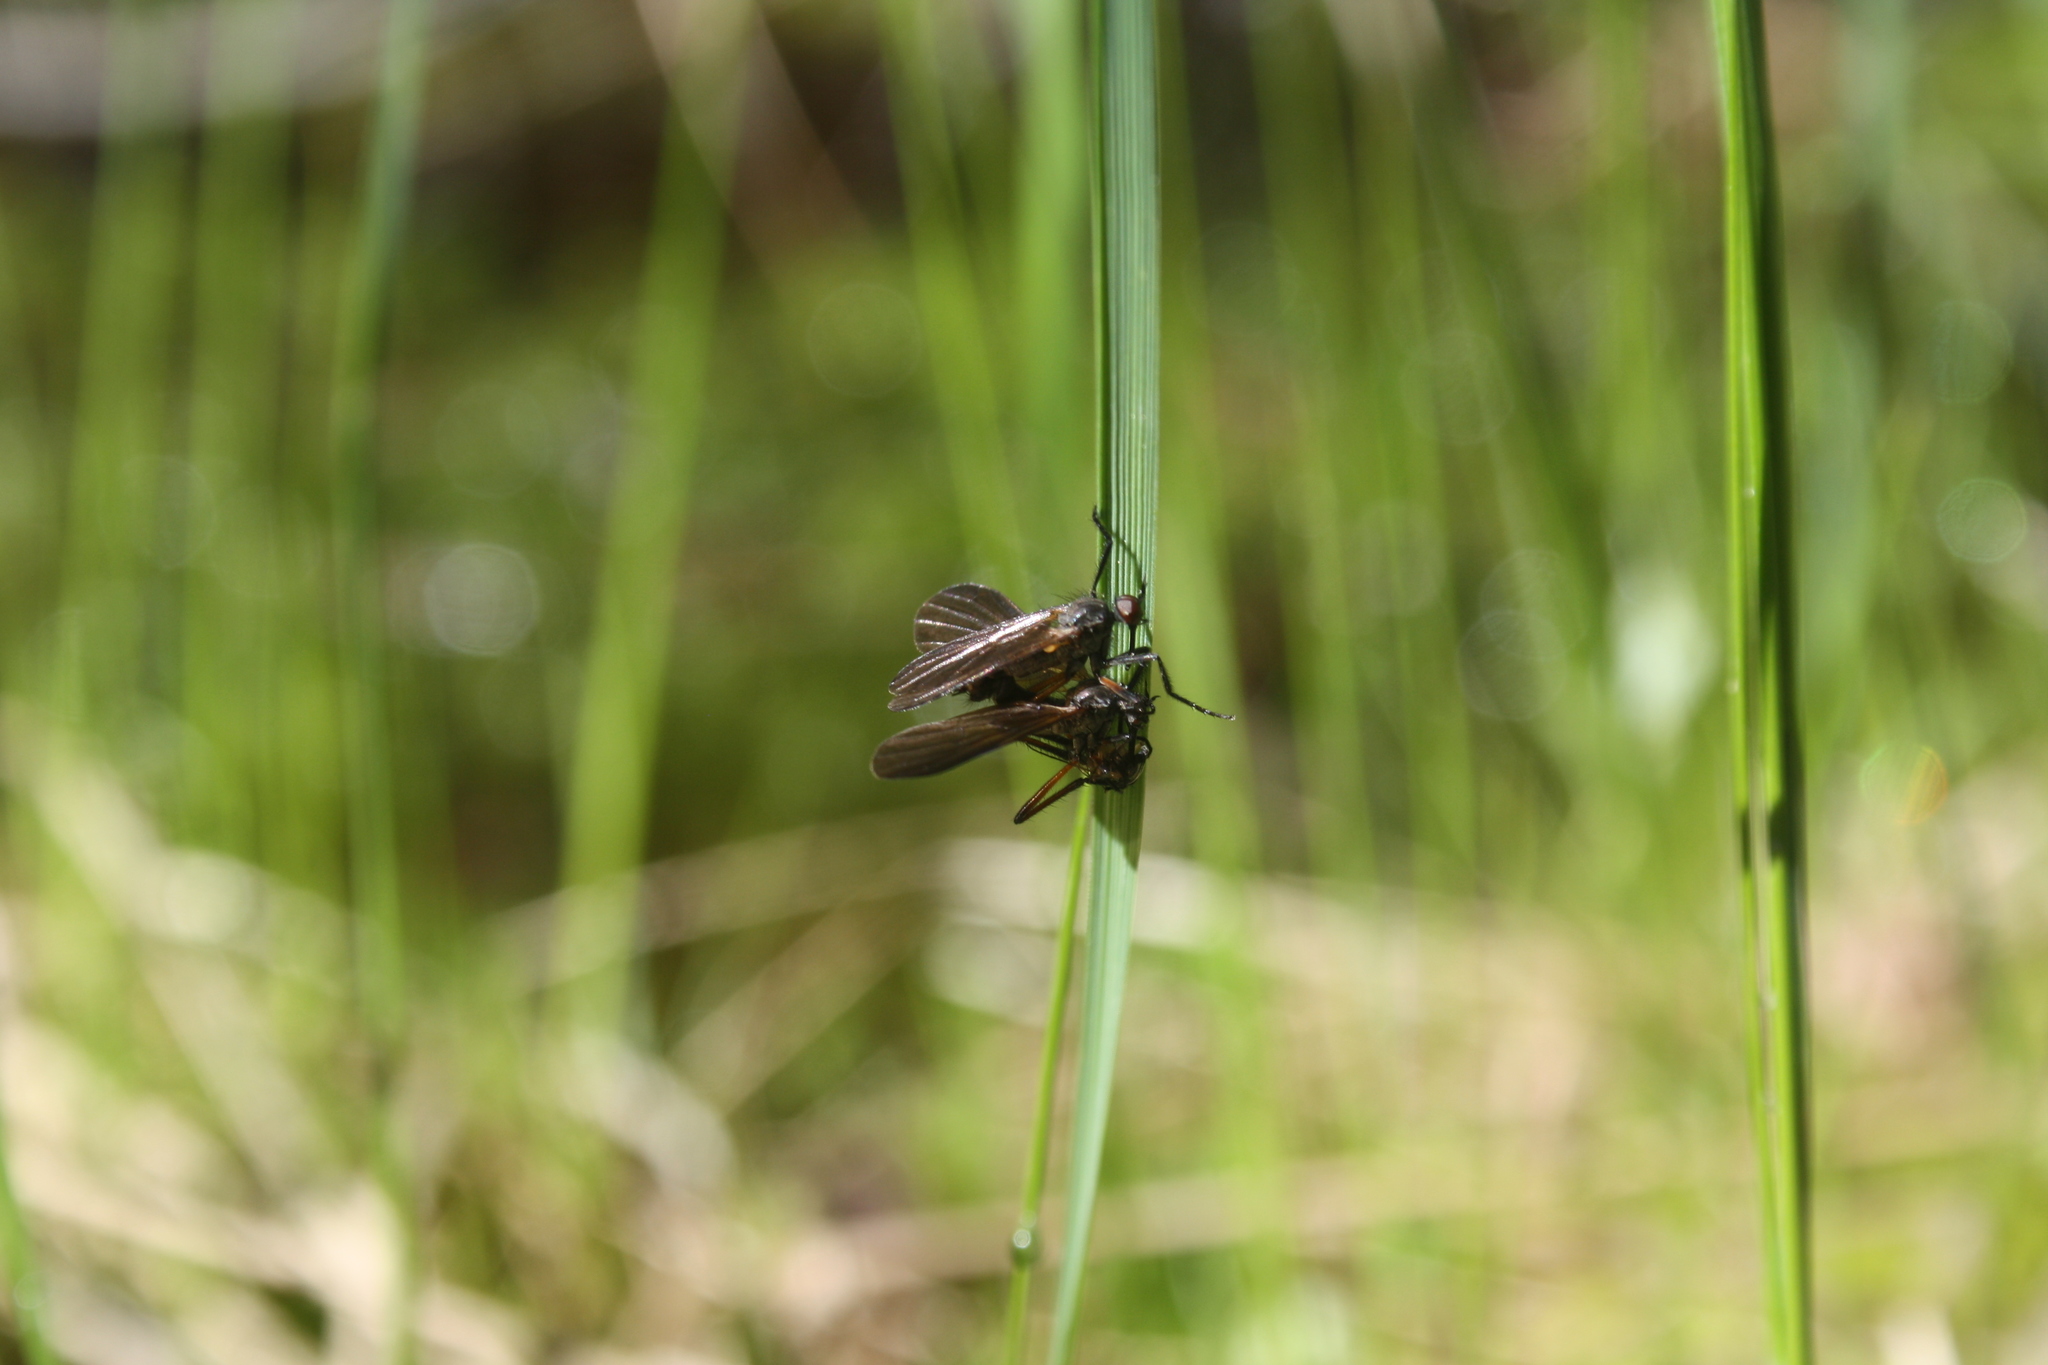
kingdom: Animalia
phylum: Arthropoda
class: Insecta
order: Diptera
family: Empididae
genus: Empis
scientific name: Empis borealis
